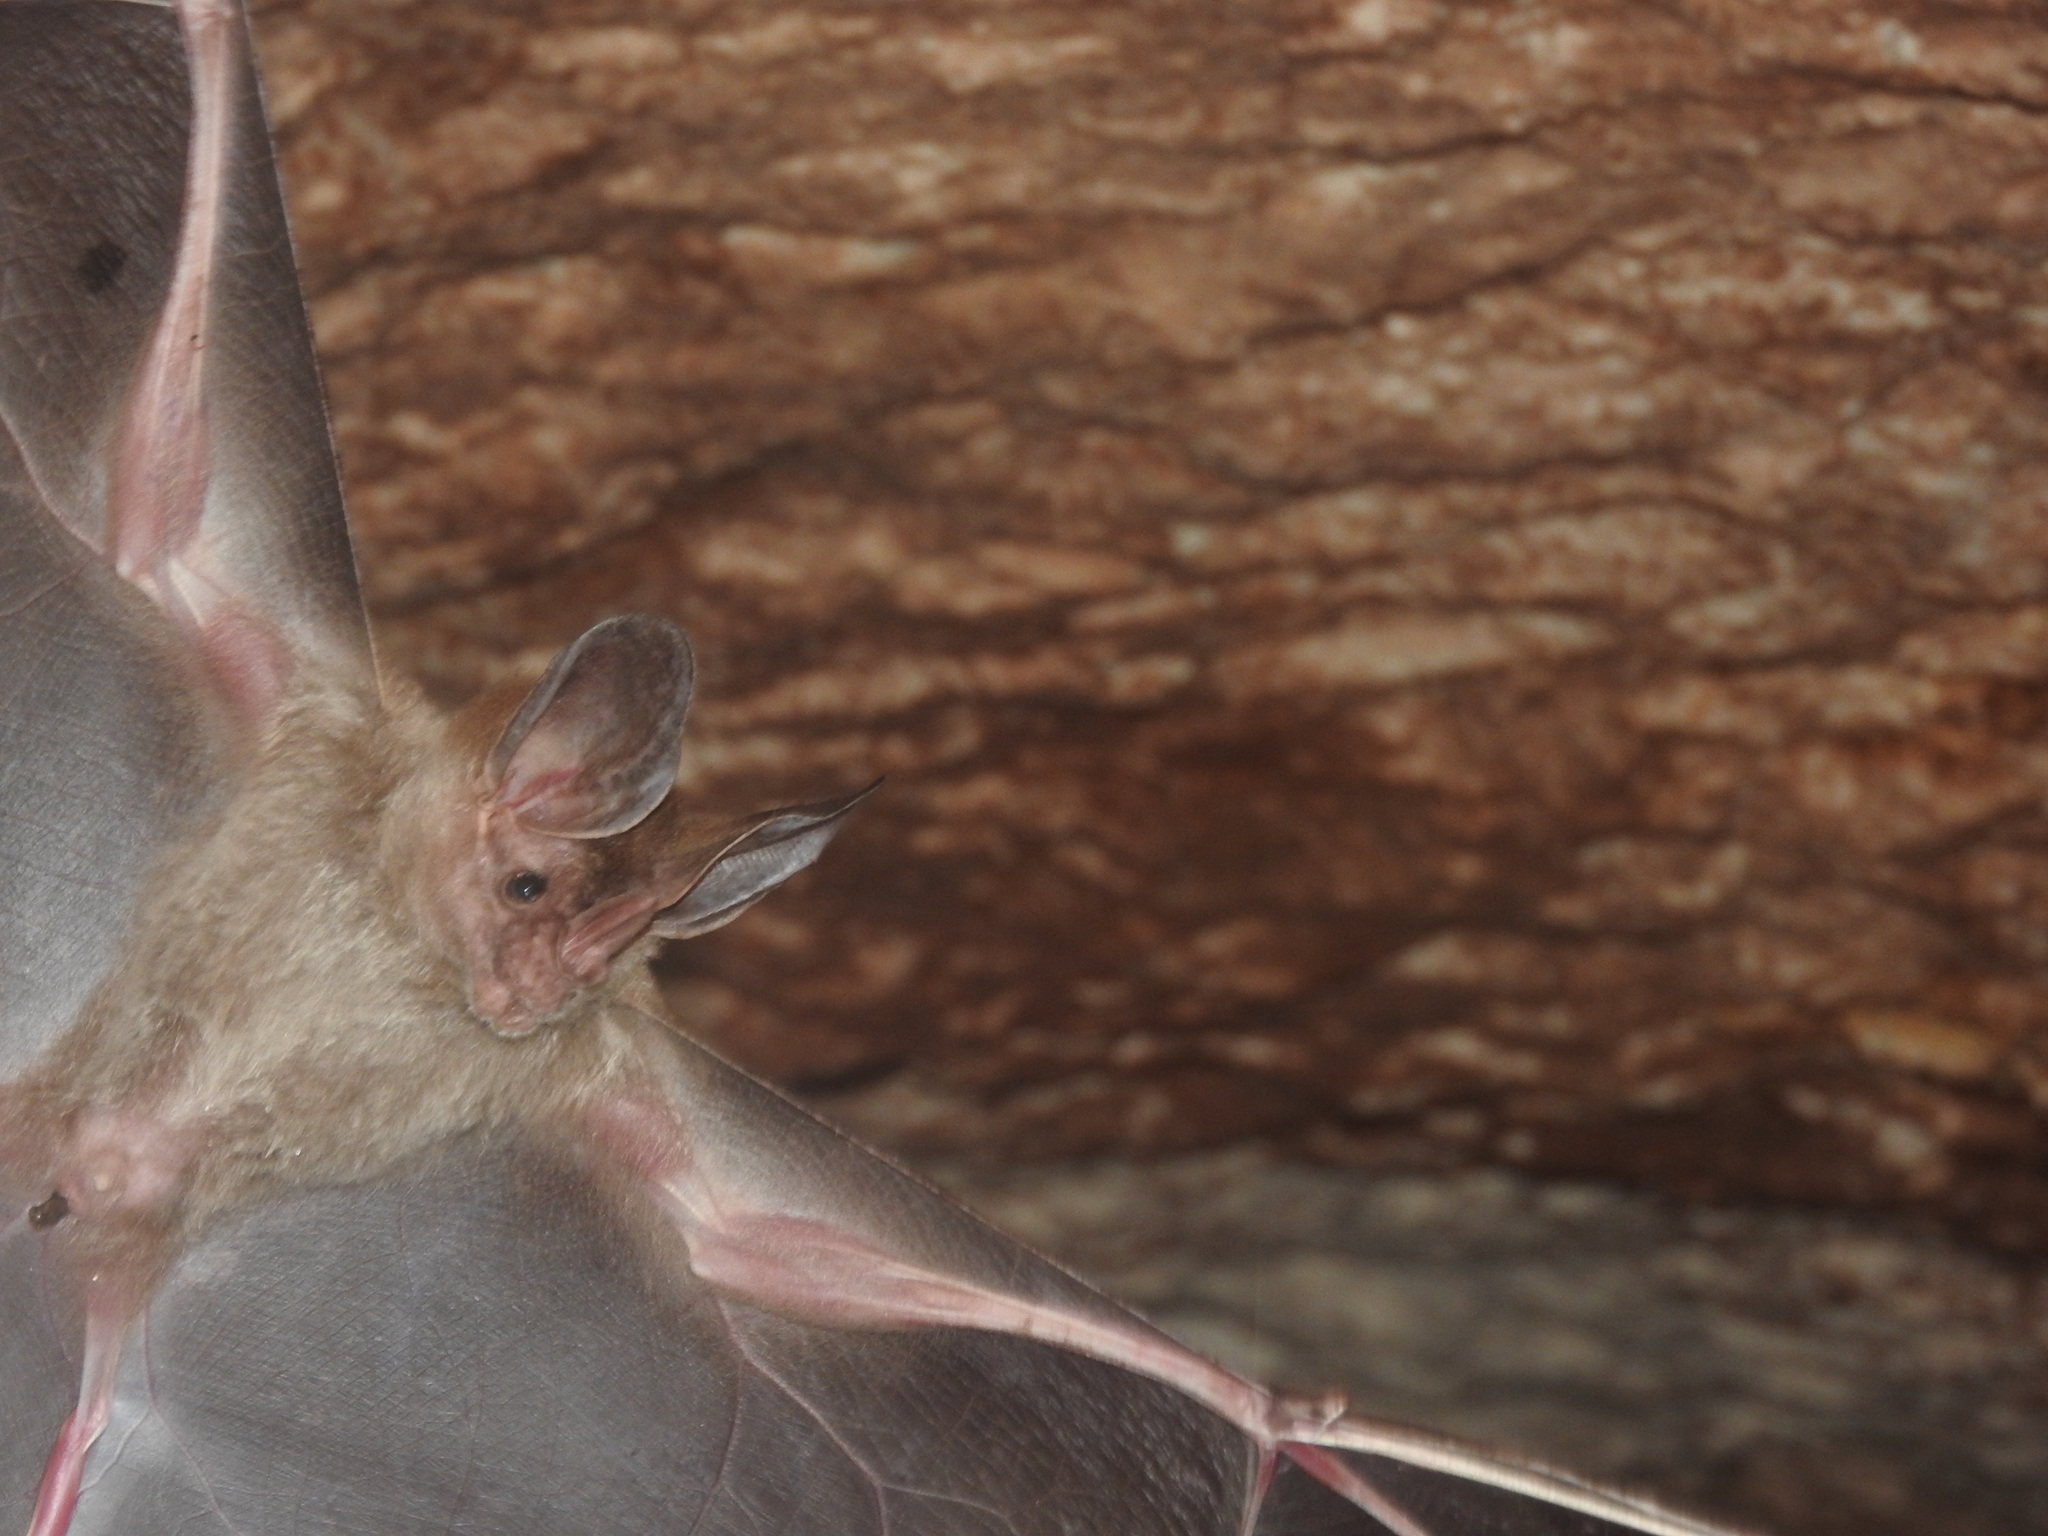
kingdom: Animalia
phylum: Chordata
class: Mammalia
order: Chiroptera
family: Phyllostomidae
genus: Chrotopterus
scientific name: Chrotopterus auritus
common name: Woolly false vampire bat
